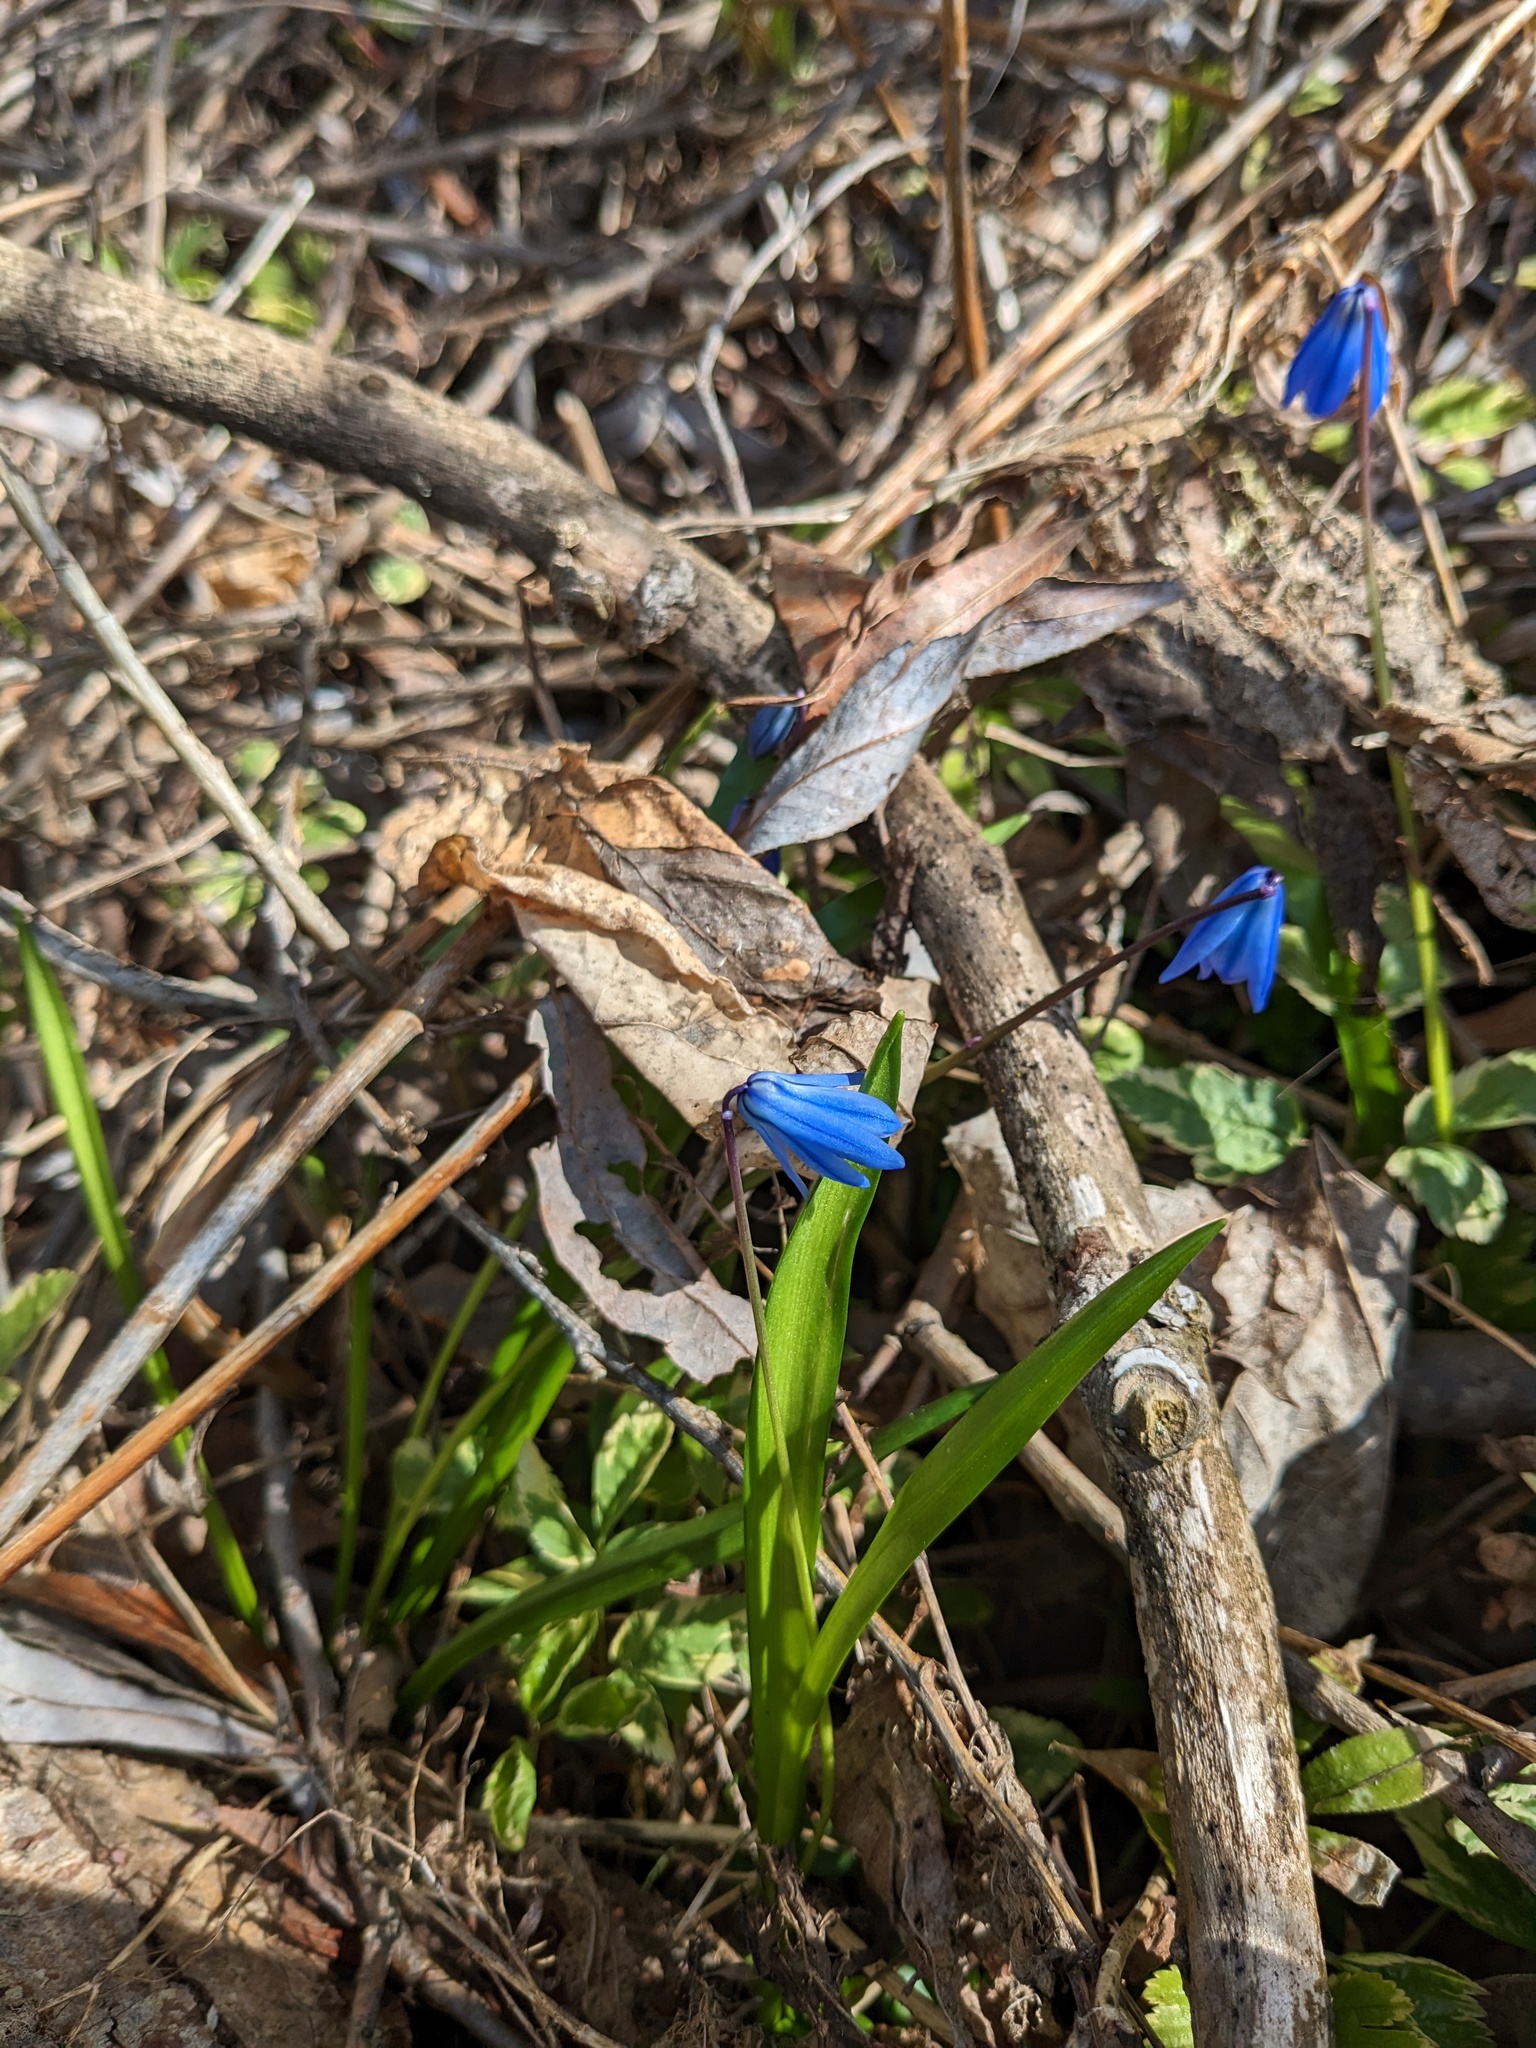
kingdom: Plantae
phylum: Tracheophyta
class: Liliopsida
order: Asparagales
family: Asparagaceae
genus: Scilla
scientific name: Scilla siberica
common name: Siberian squill
